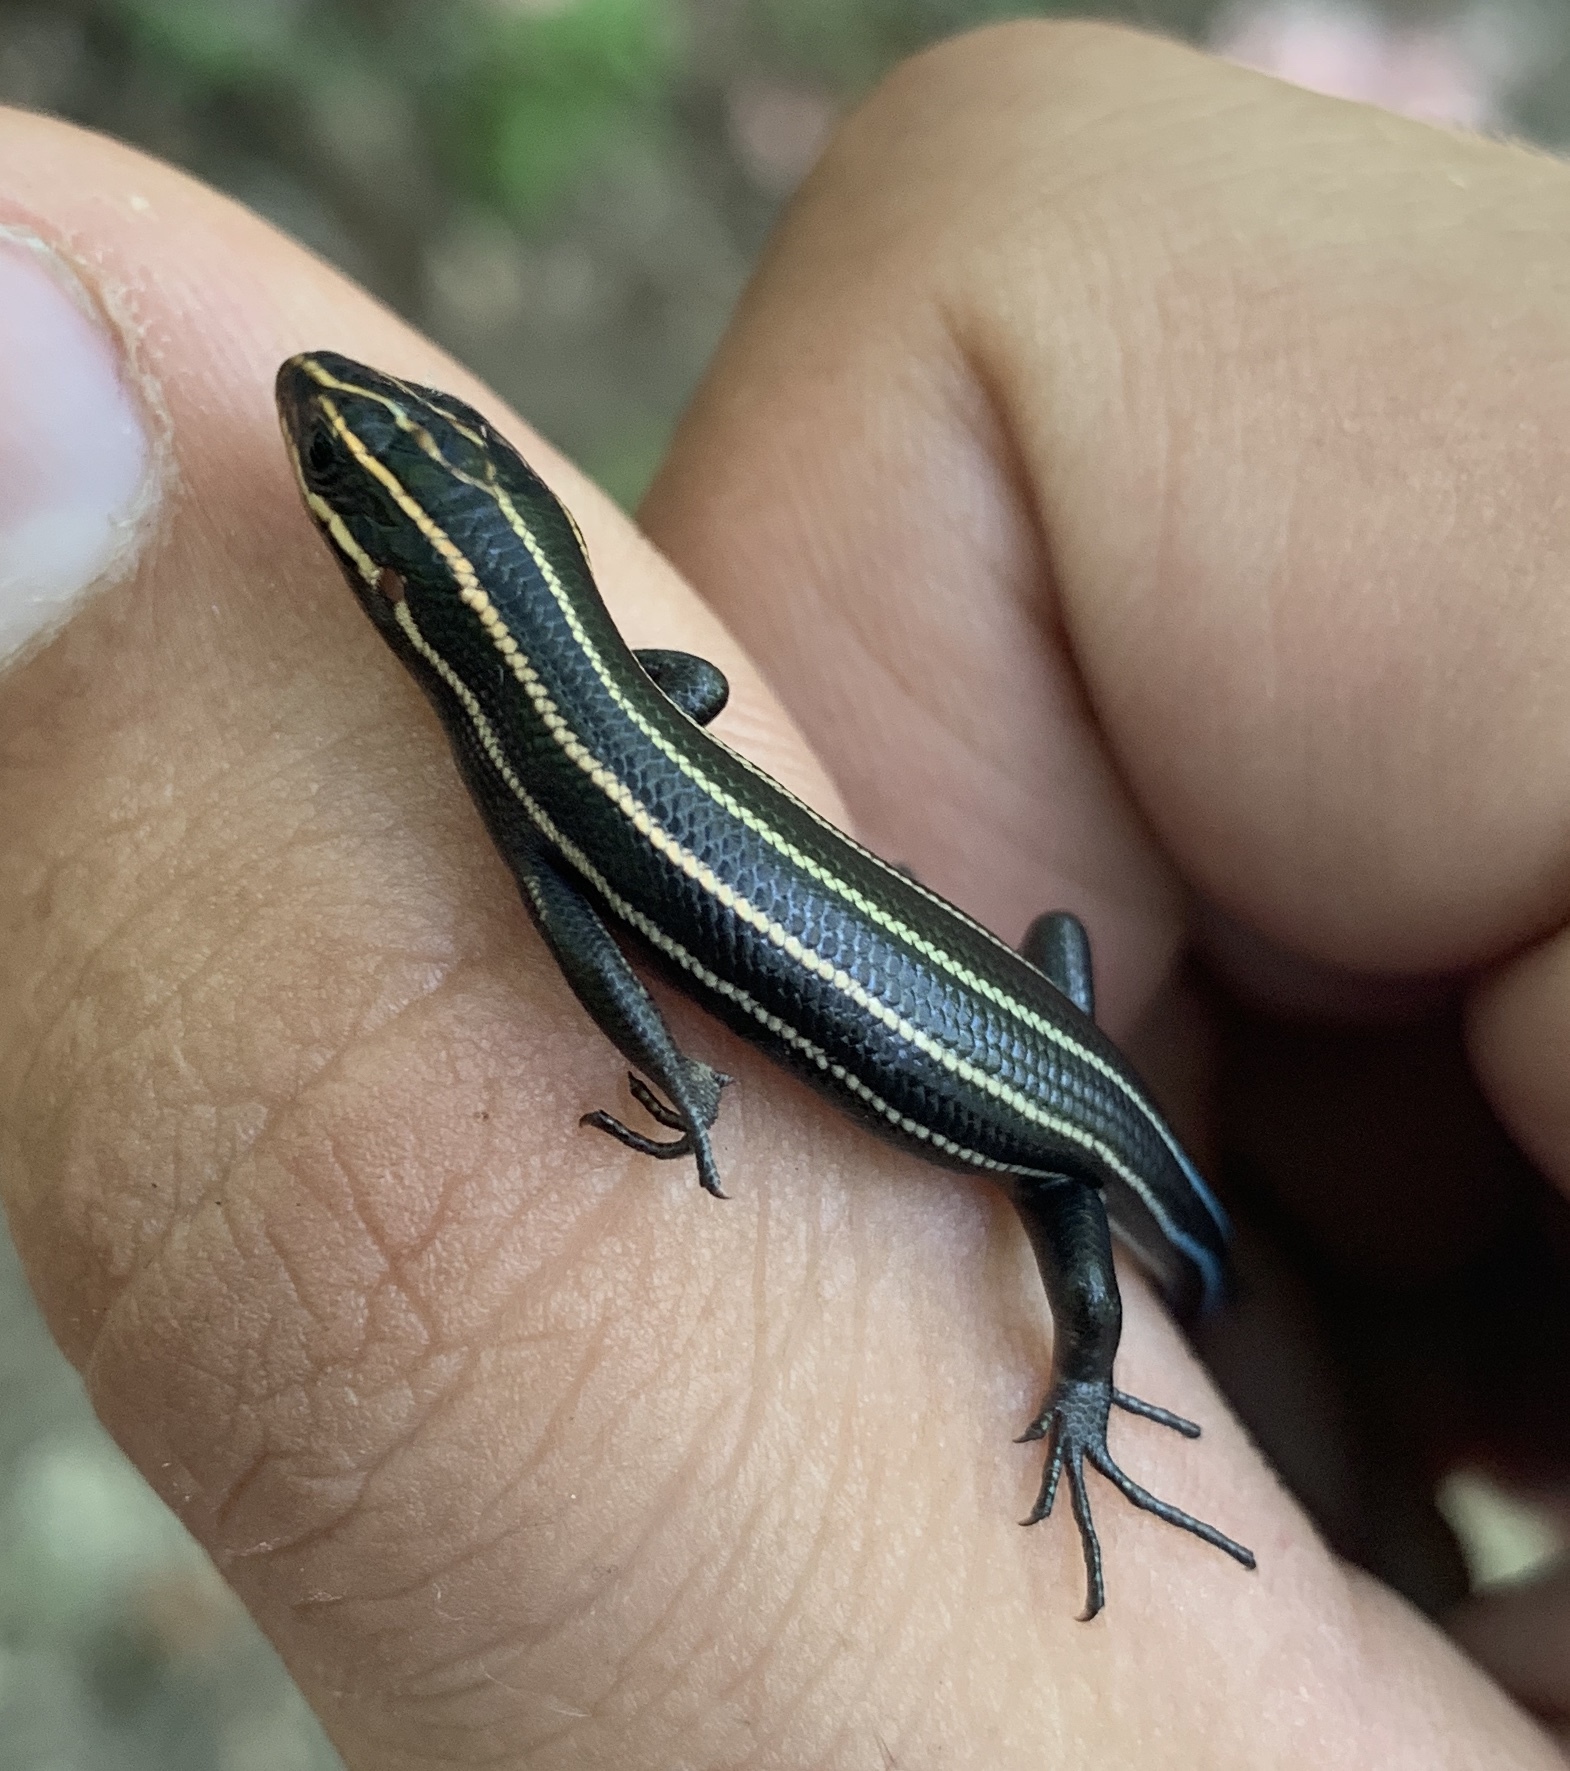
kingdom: Animalia
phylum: Chordata
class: Squamata
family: Scincidae
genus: Plestiodon
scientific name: Plestiodon fasciatus
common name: Five-lined skink
